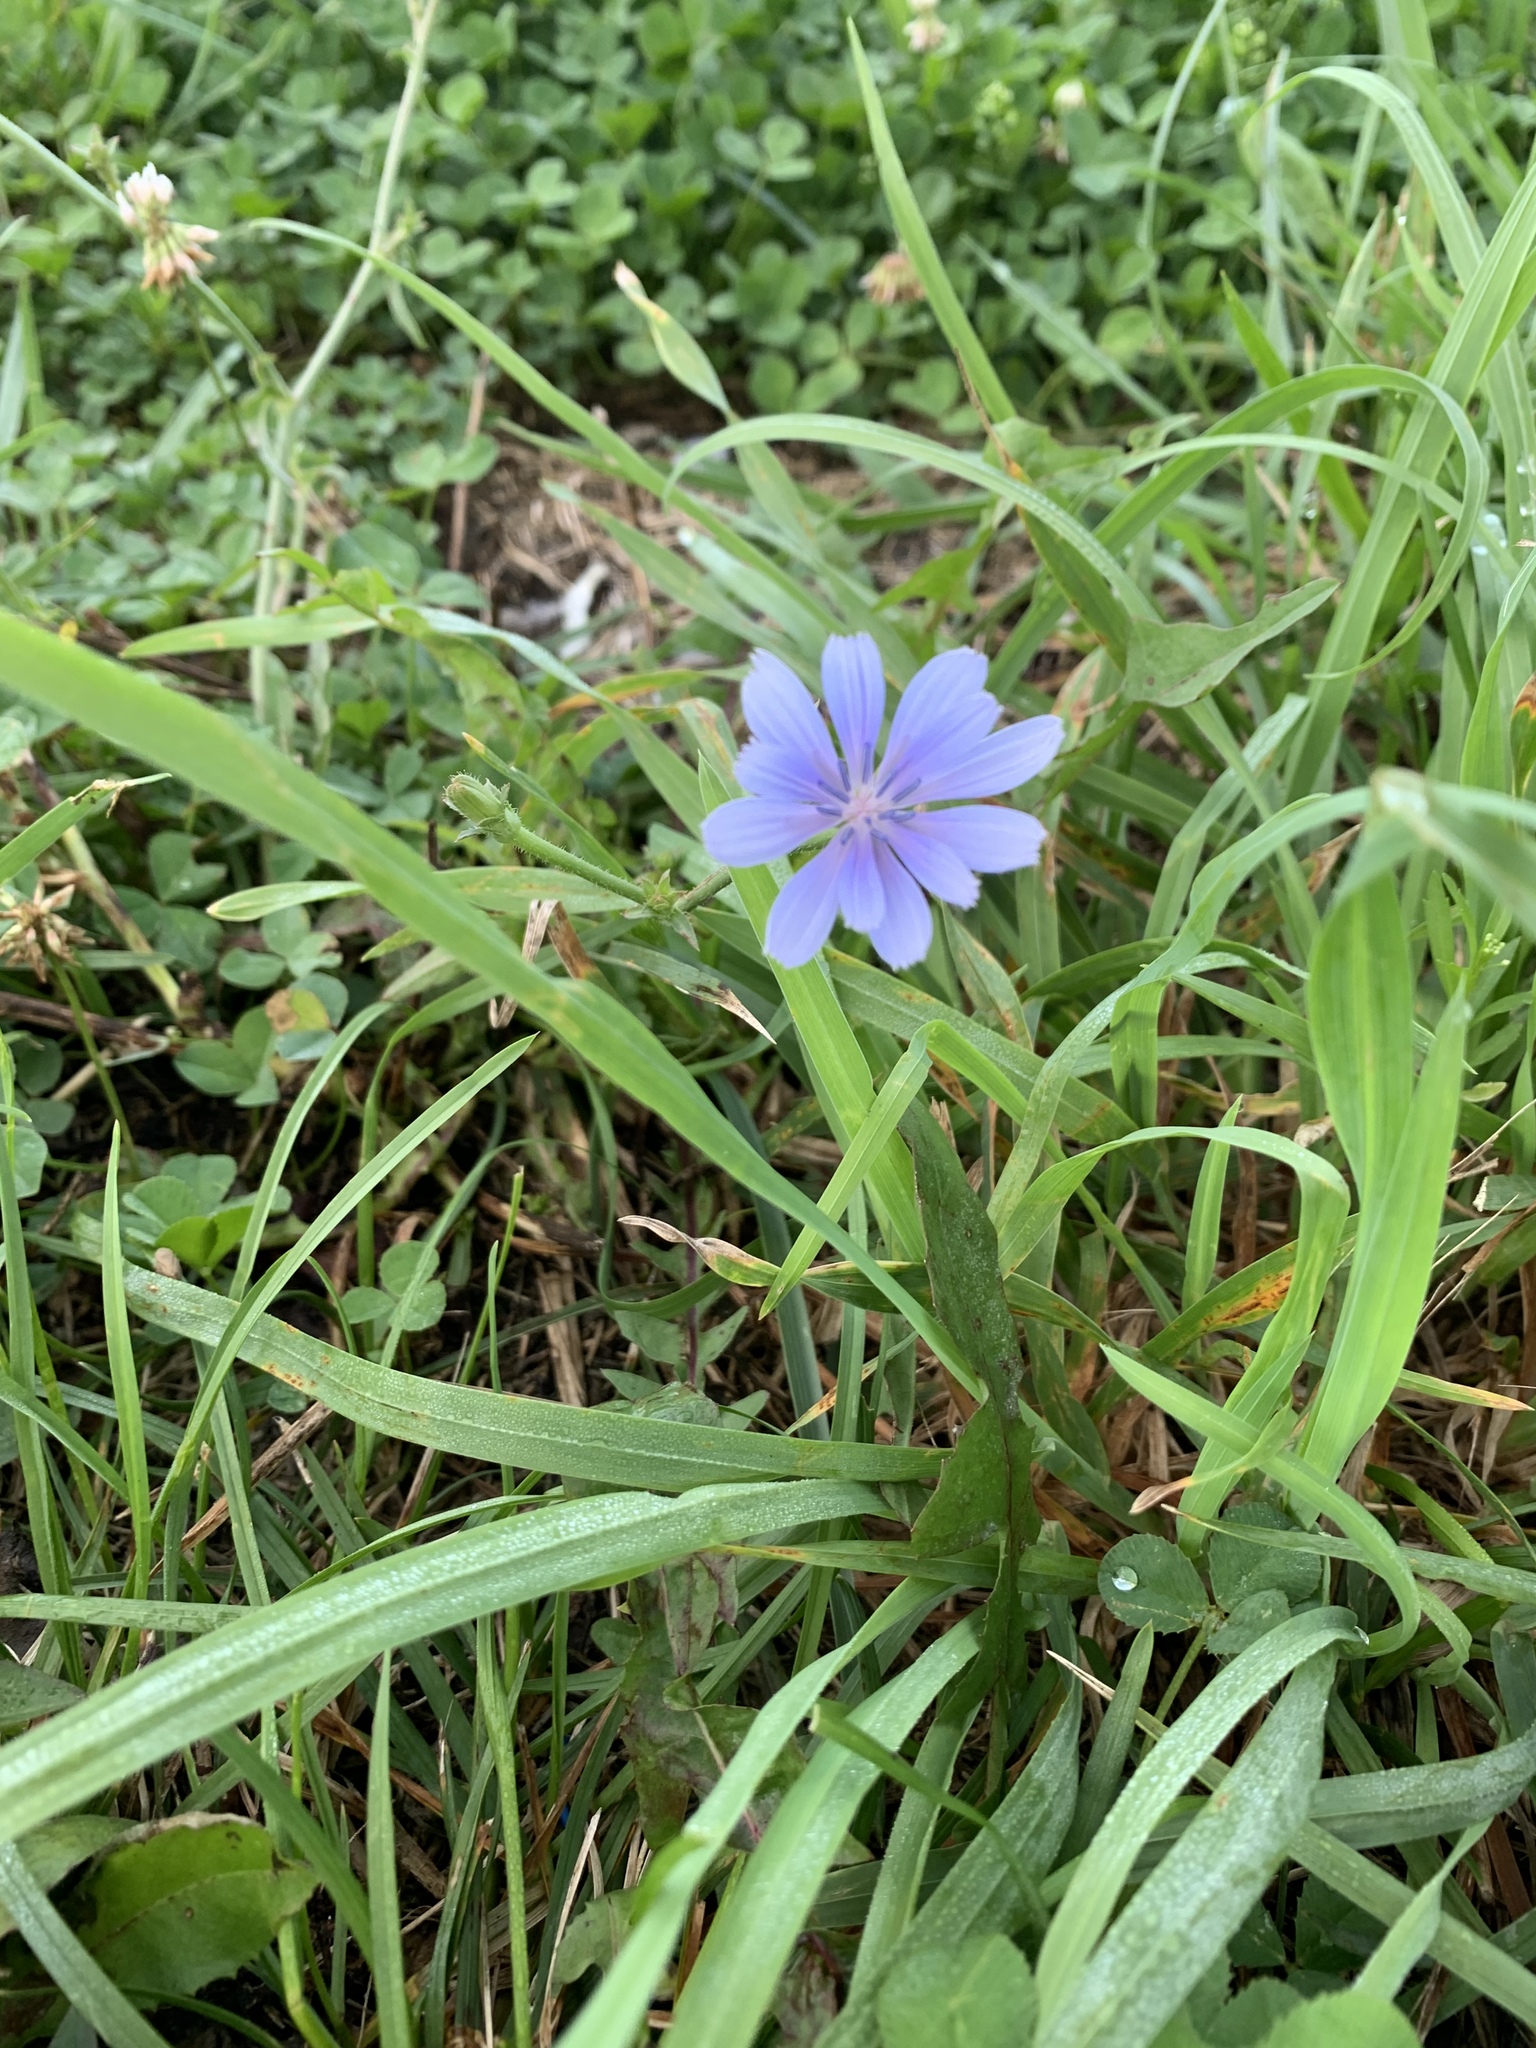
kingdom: Plantae
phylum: Tracheophyta
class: Magnoliopsida
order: Asterales
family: Asteraceae
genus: Cichorium
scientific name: Cichorium intybus
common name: Chicory
